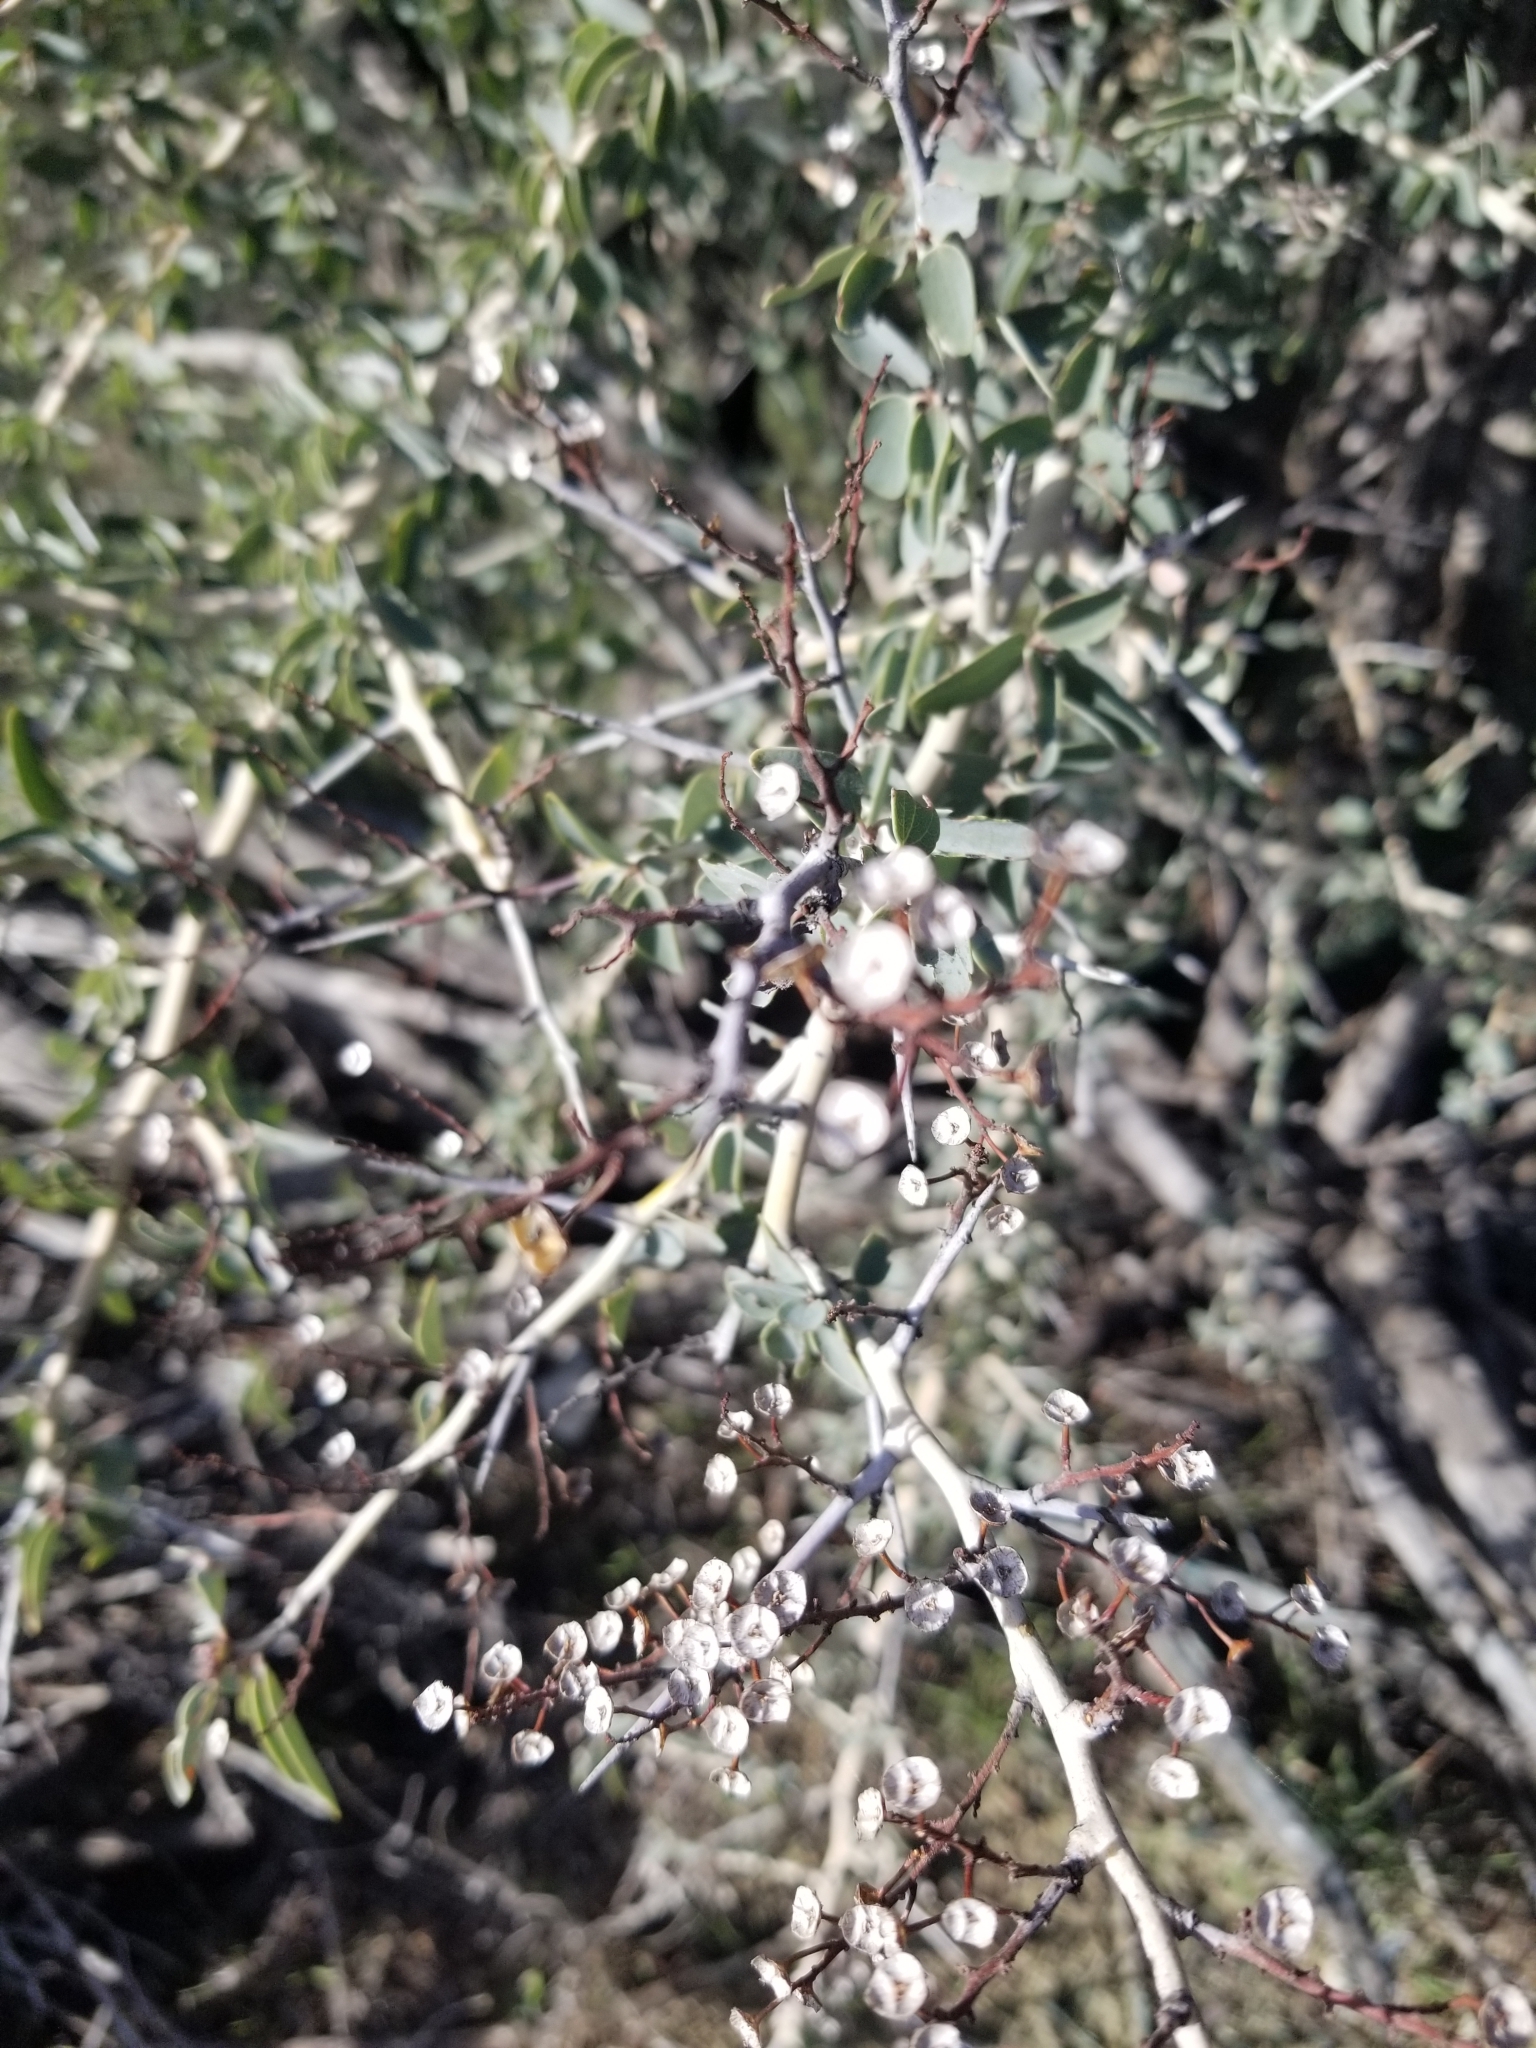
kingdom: Plantae
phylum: Tracheophyta
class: Magnoliopsida
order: Rosales
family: Rhamnaceae
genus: Ceanothus
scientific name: Ceanothus leucodermis
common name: Chaparral whitethorn
